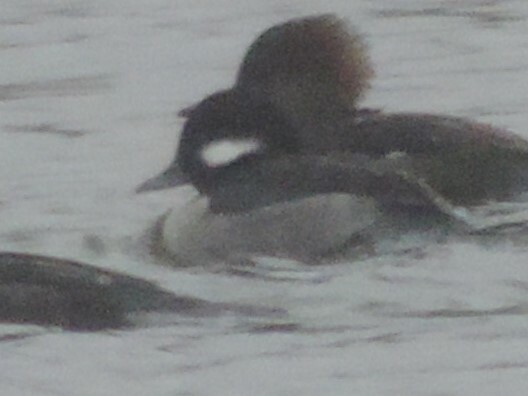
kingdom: Animalia
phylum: Chordata
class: Aves
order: Anseriformes
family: Anatidae
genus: Bucephala
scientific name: Bucephala albeola
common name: Bufflehead
